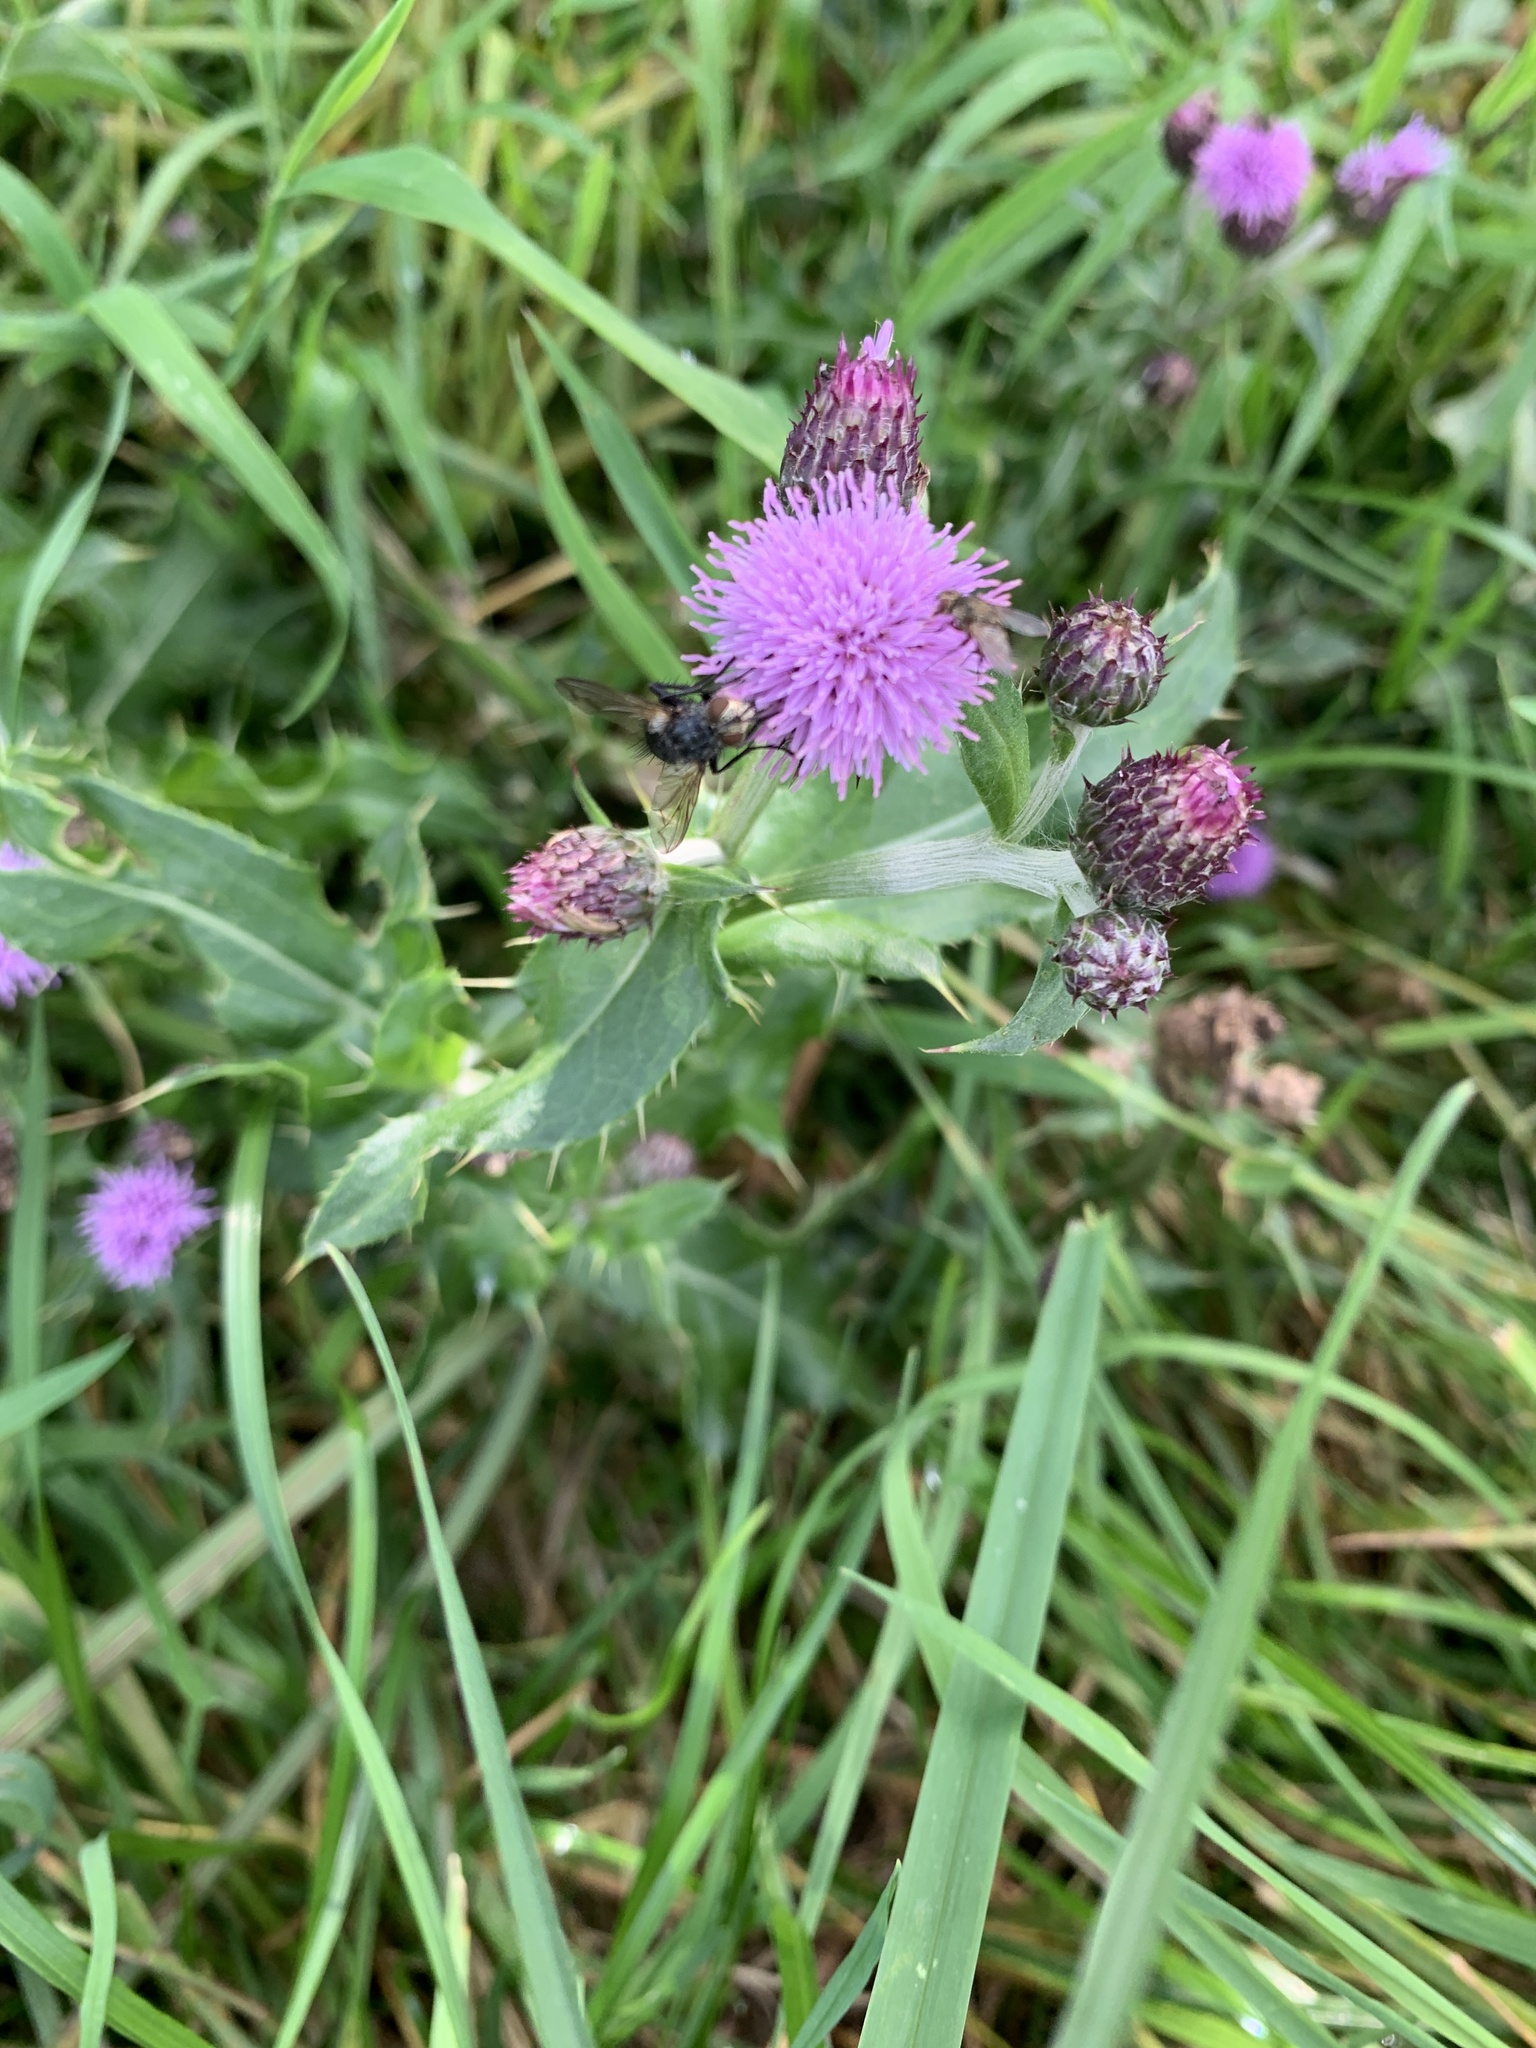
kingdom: Plantae
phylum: Tracheophyta
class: Magnoliopsida
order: Asterales
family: Asteraceae
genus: Cirsium
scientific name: Cirsium arvense
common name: Creeping thistle
